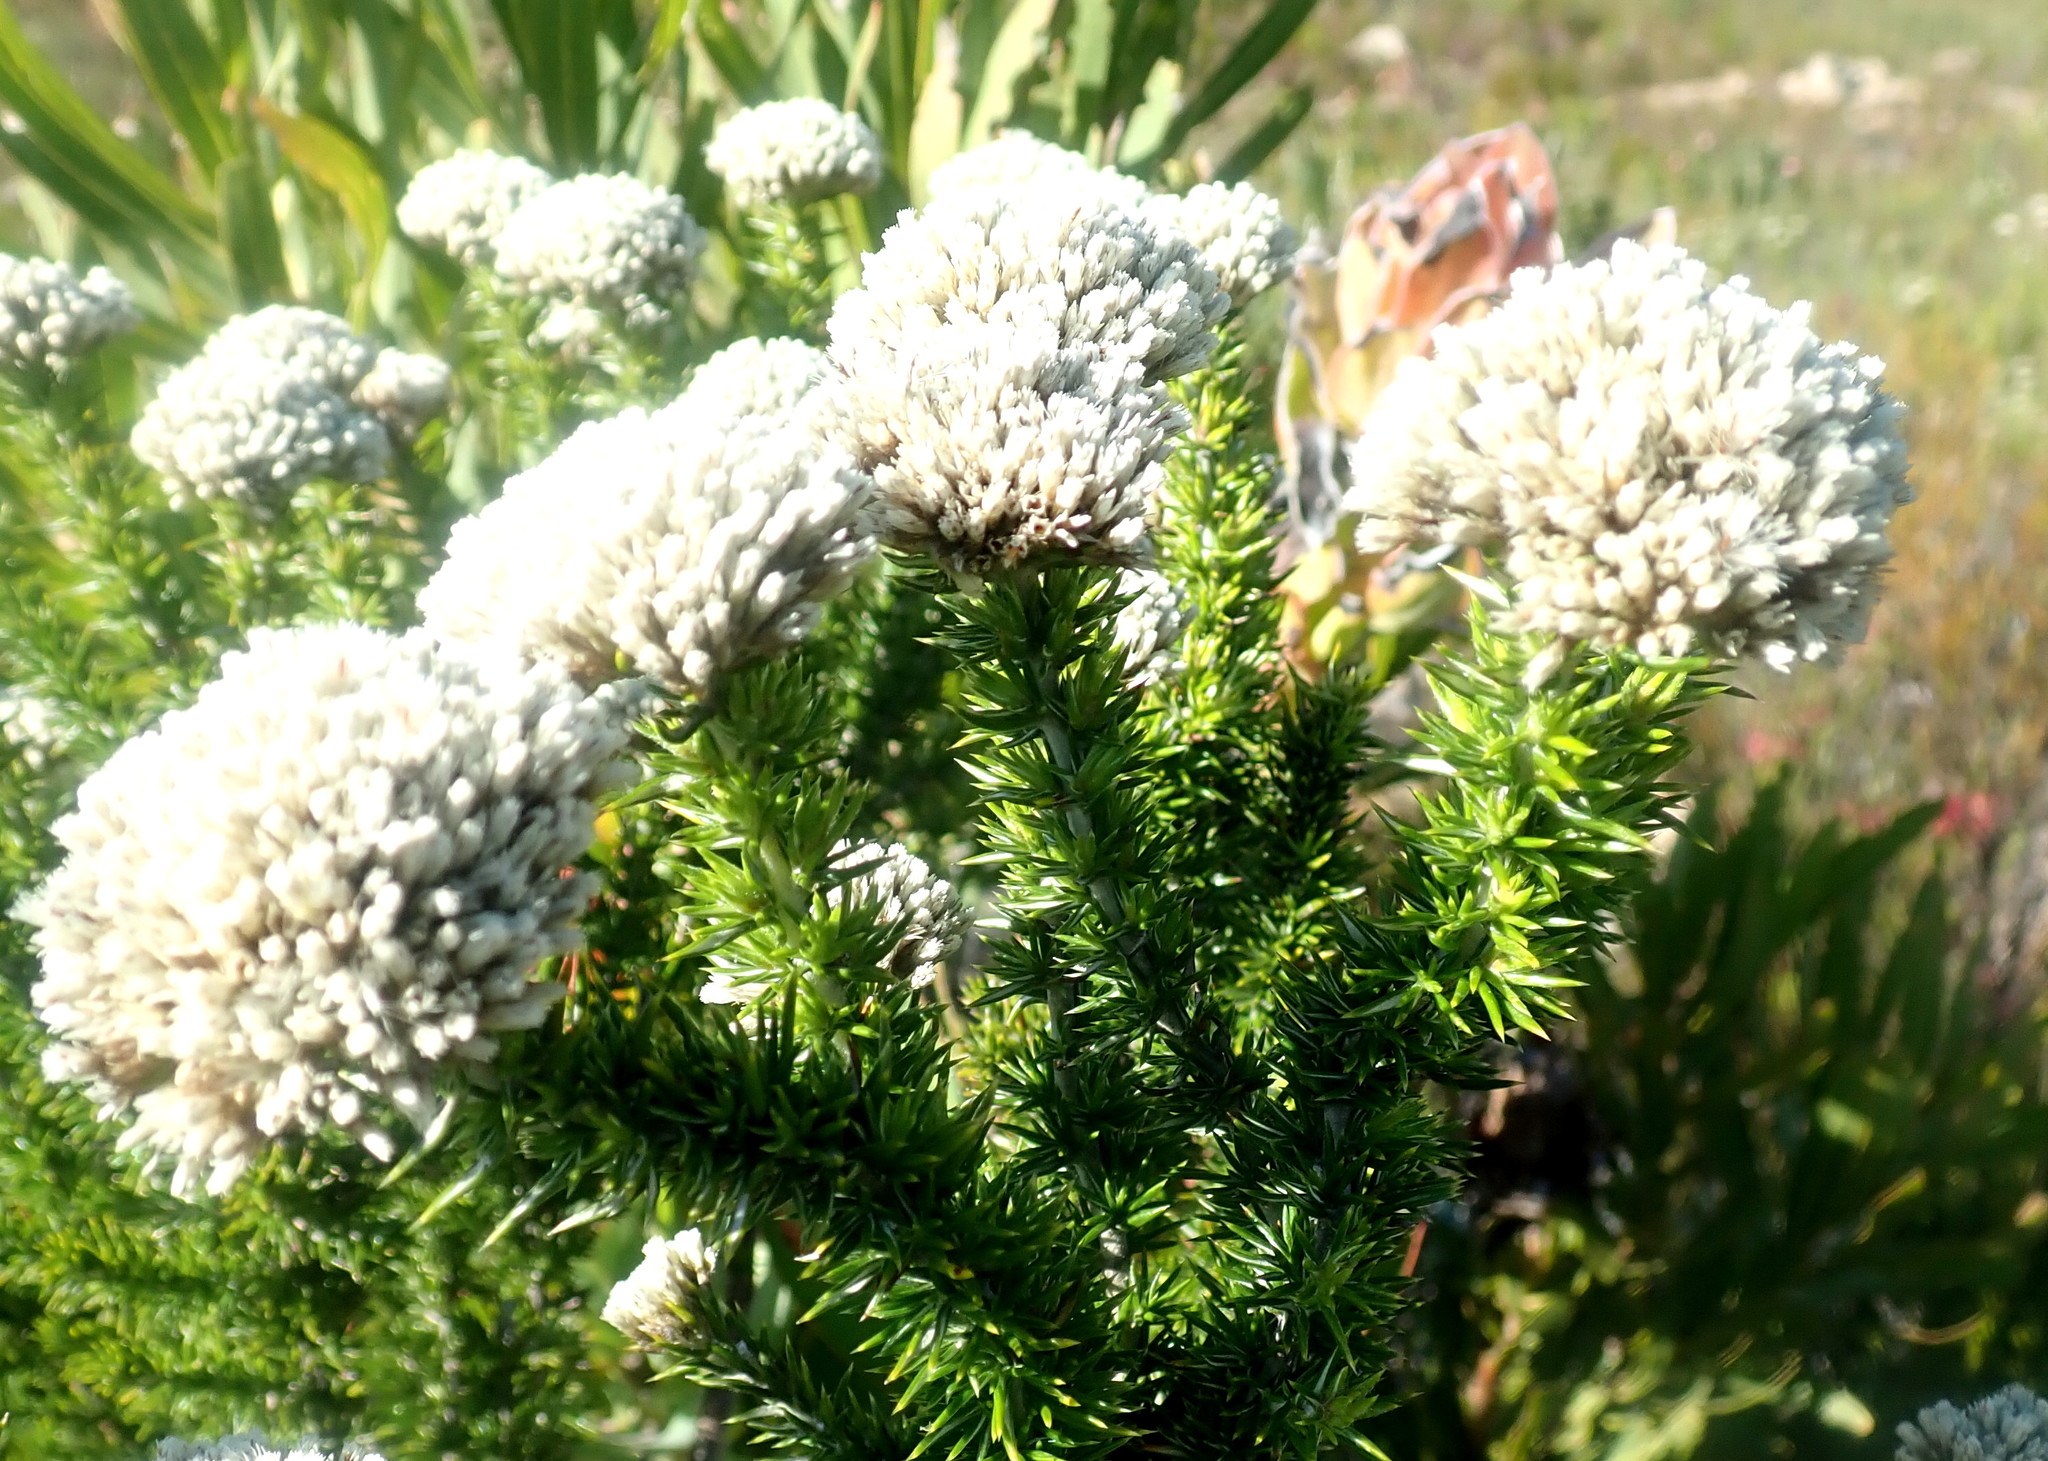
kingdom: Plantae
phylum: Tracheophyta
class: Magnoliopsida
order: Asterales
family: Asteraceae
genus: Metalasia
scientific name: Metalasia trivialis
